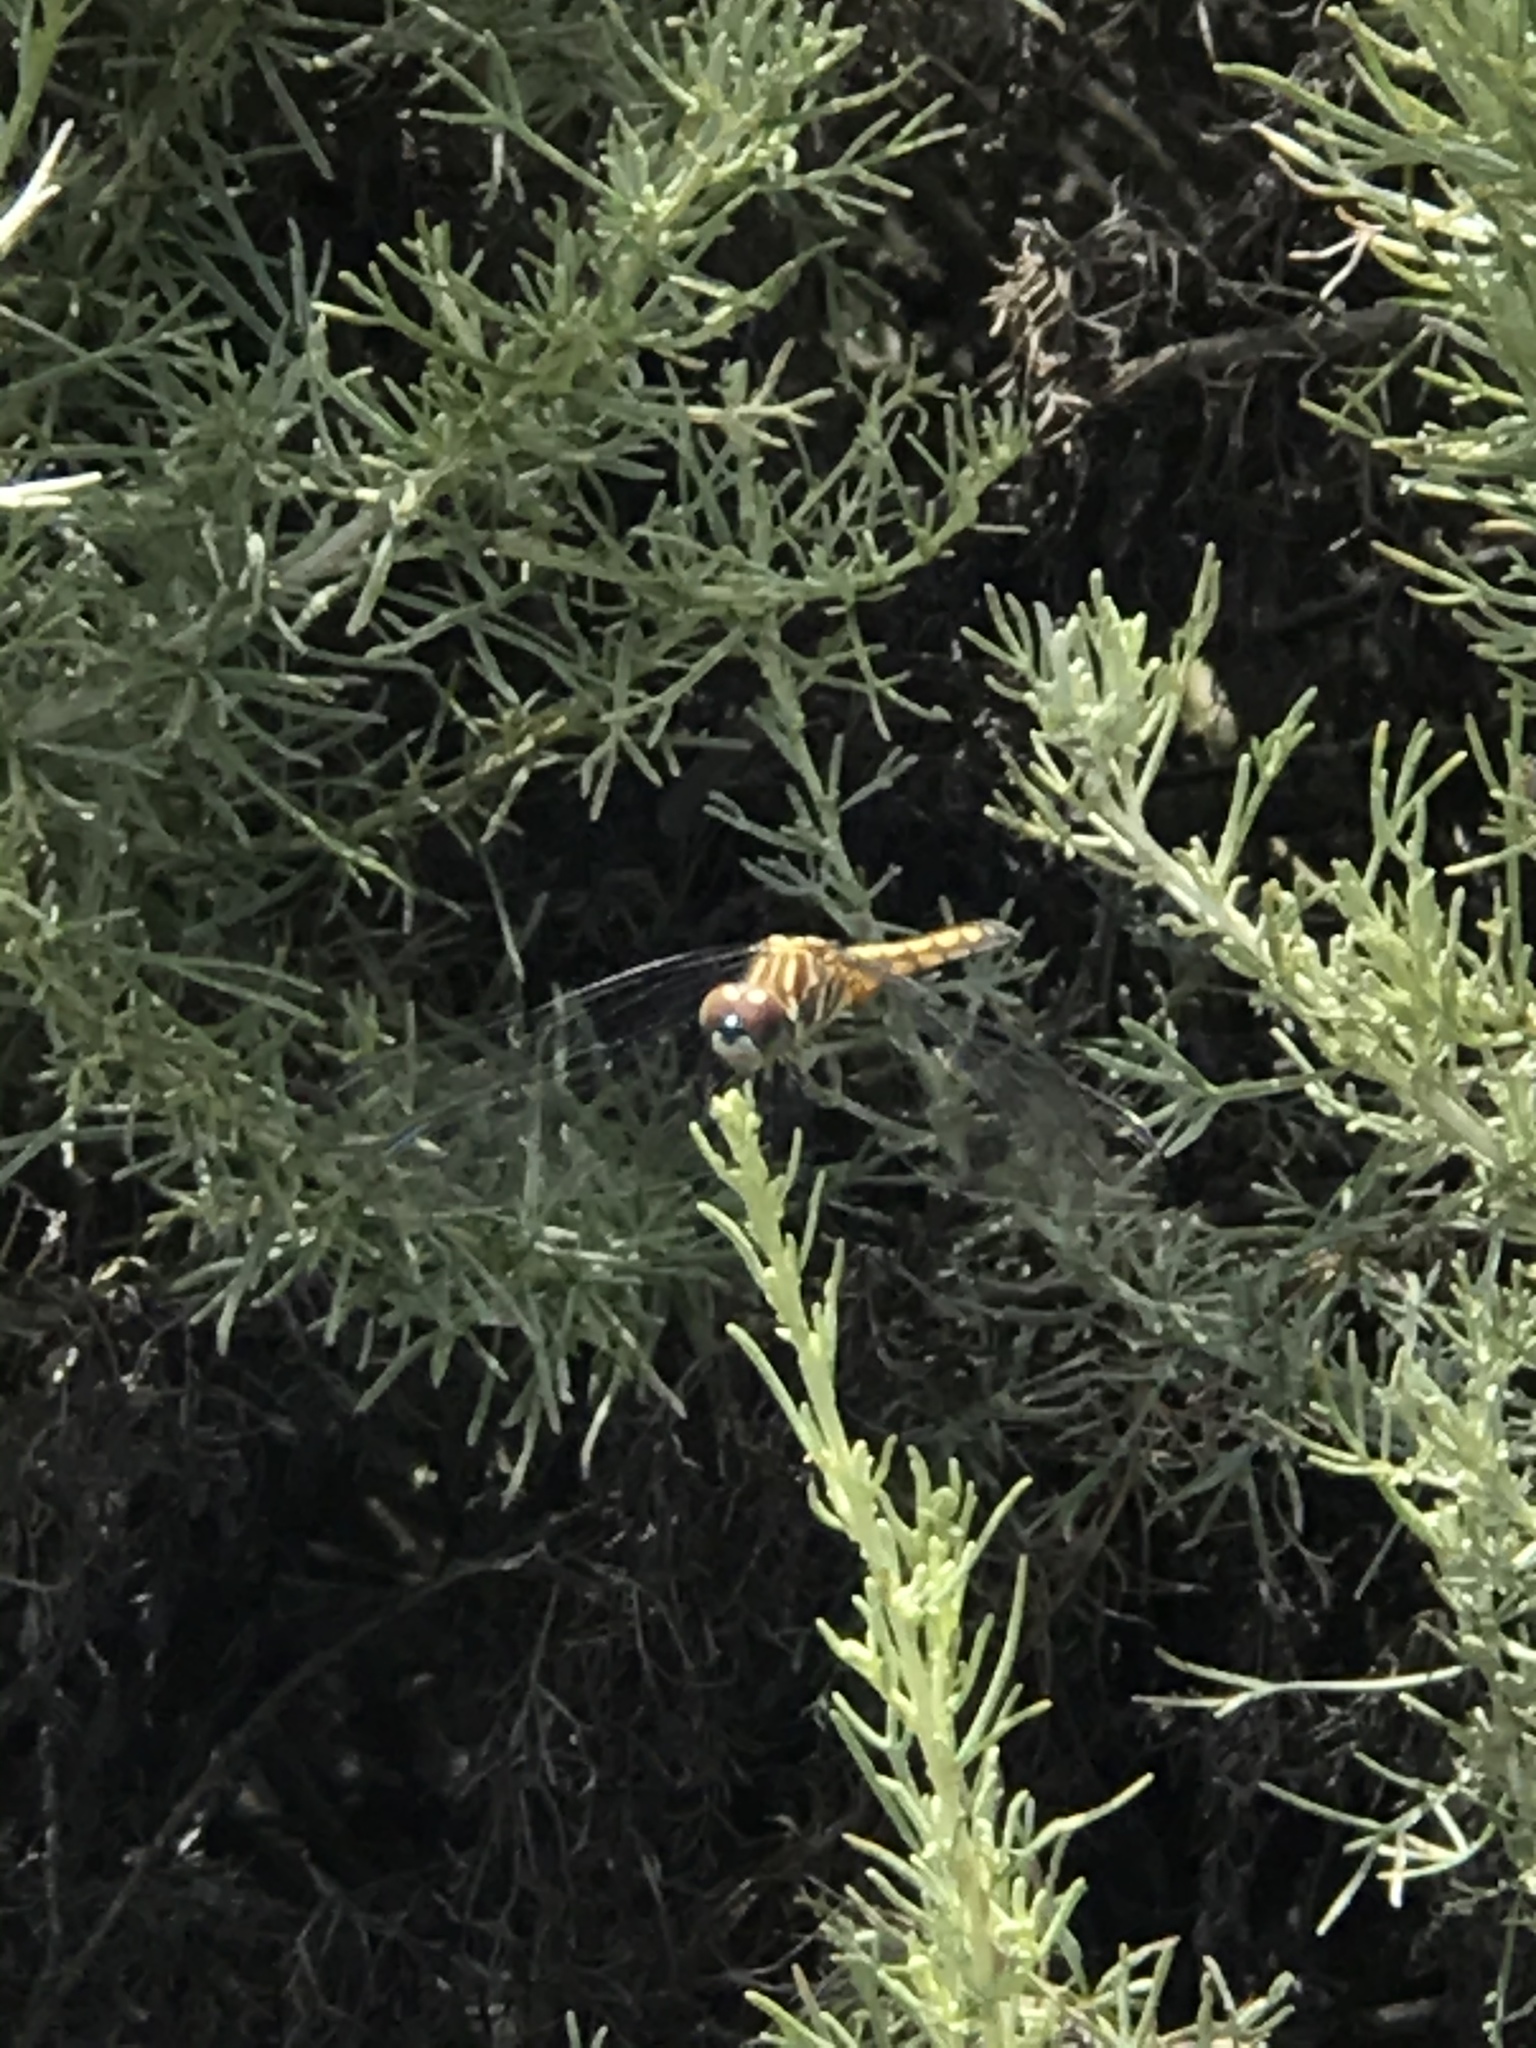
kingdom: Animalia
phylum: Arthropoda
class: Insecta
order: Odonata
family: Libellulidae
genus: Pachydiplax
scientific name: Pachydiplax longipennis
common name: Blue dasher
